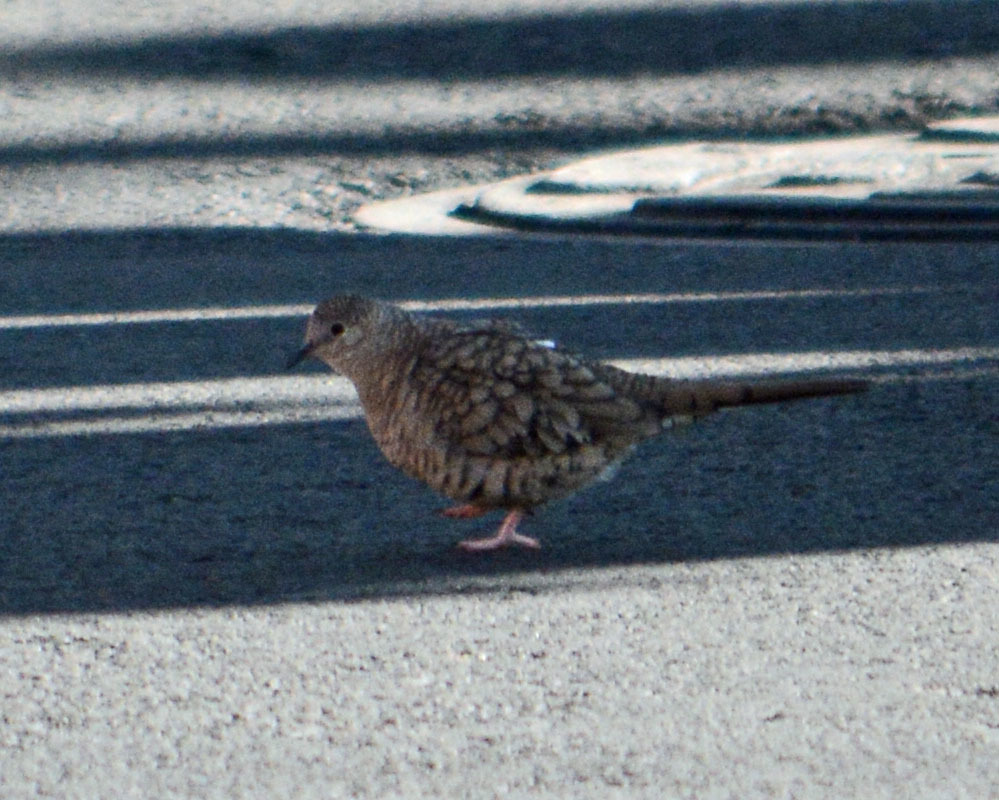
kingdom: Animalia
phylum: Chordata
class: Aves
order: Columbiformes
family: Columbidae
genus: Columbina
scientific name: Columbina inca
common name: Inca dove
